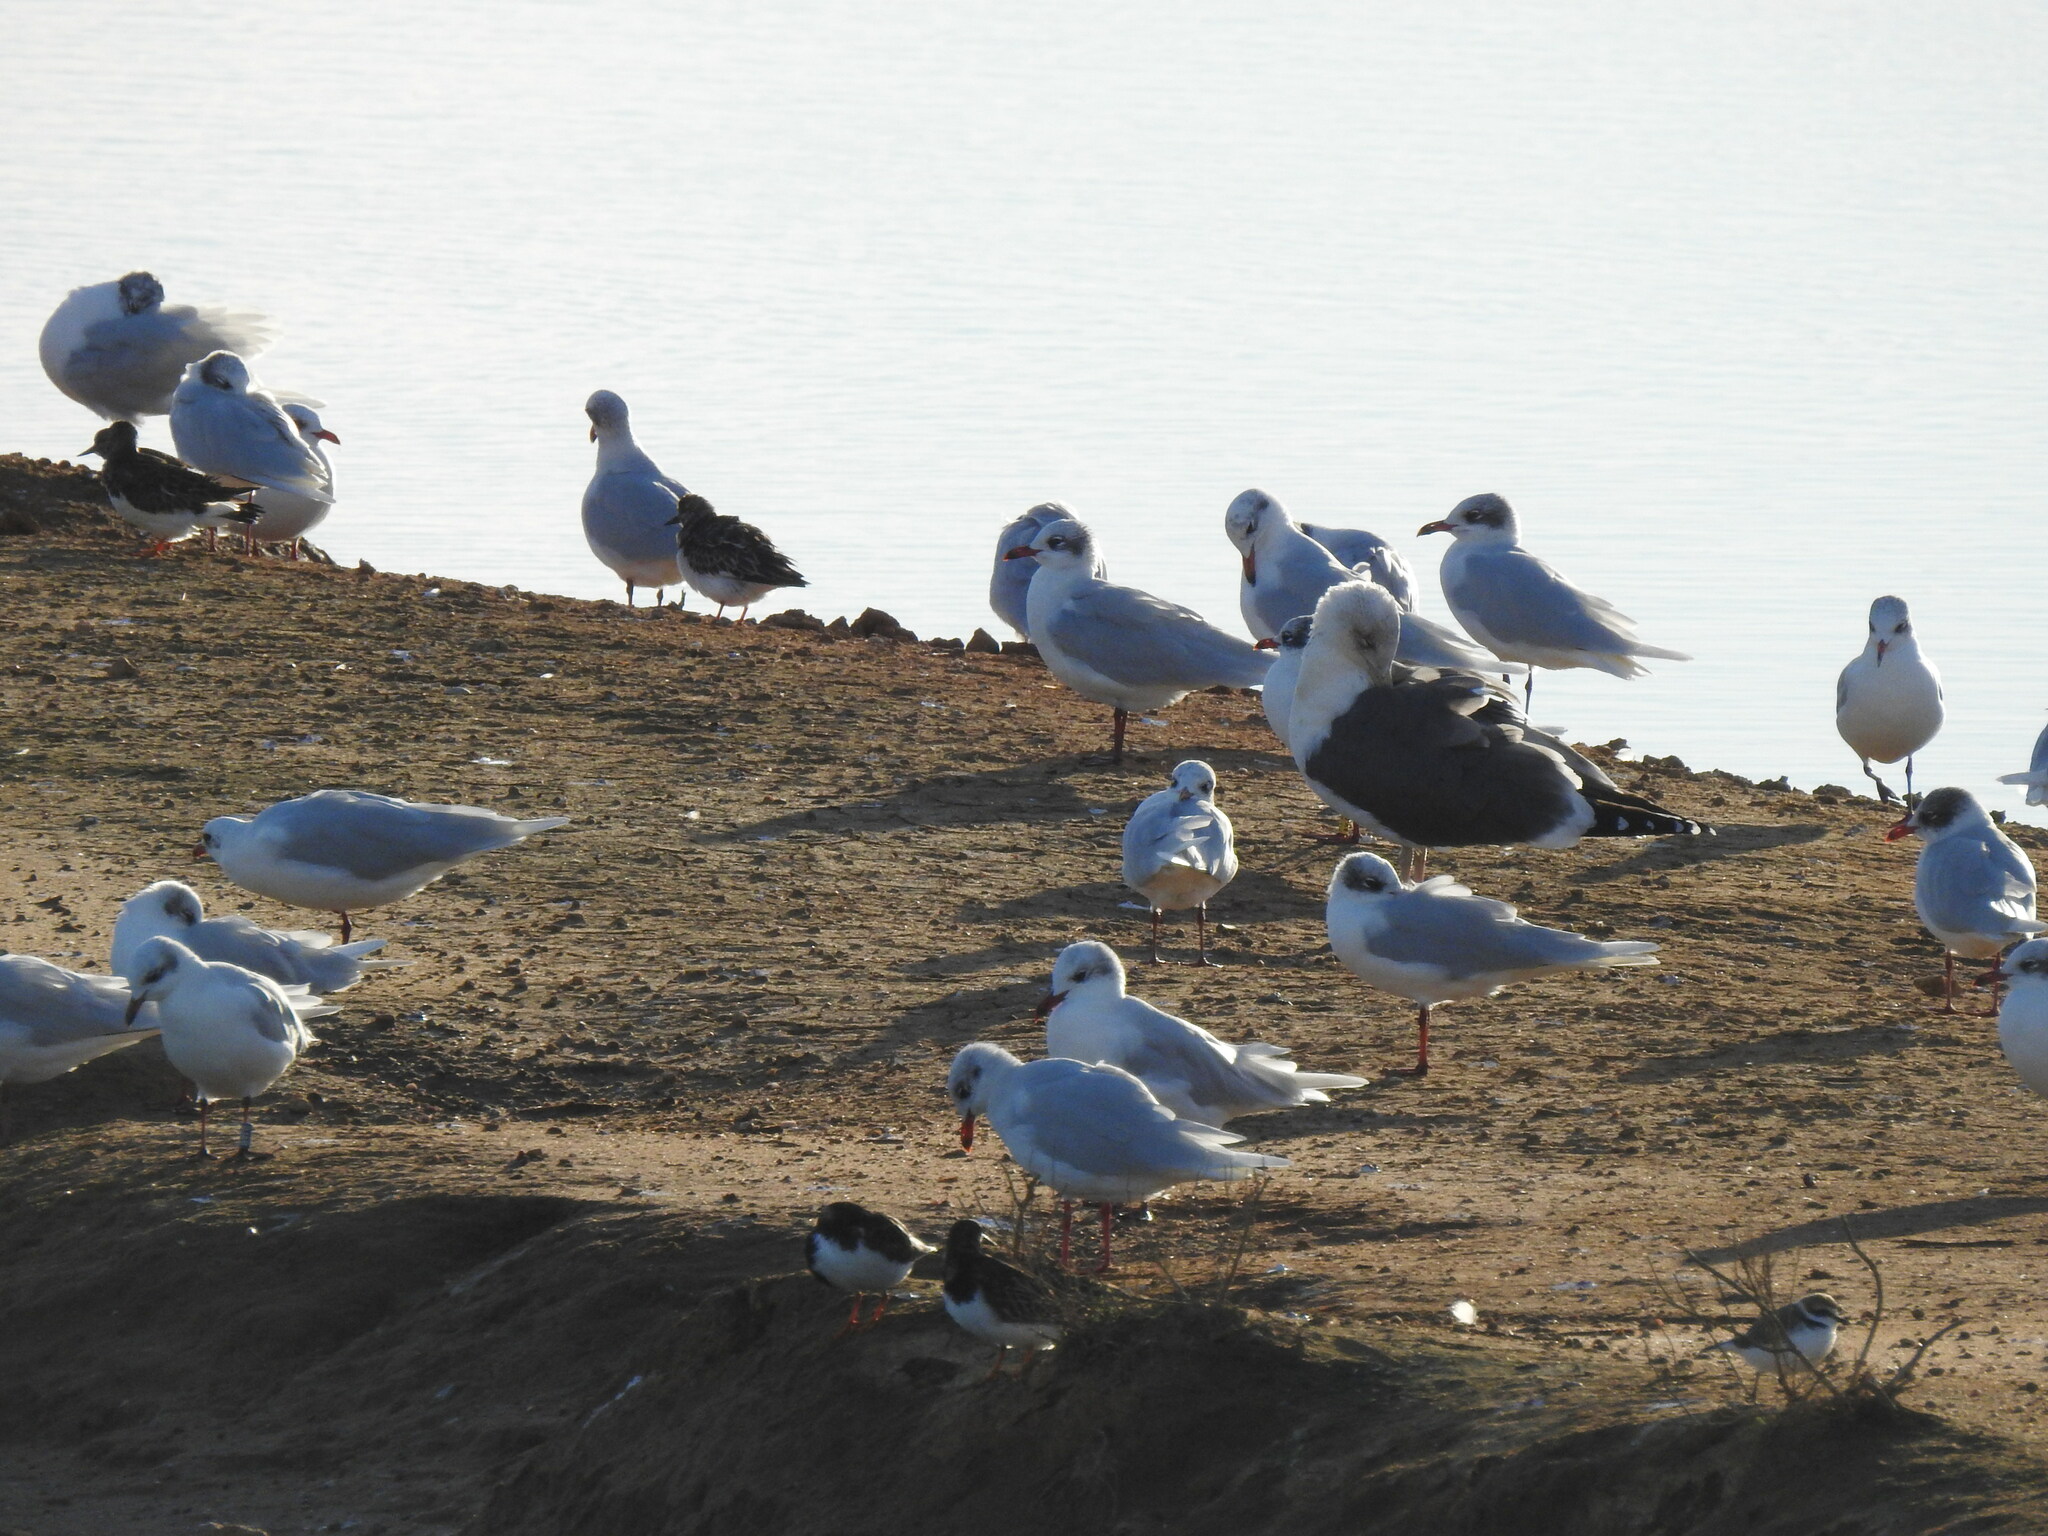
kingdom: Animalia
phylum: Chordata
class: Aves
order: Charadriiformes
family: Scolopacidae
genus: Arenaria
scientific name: Arenaria interpres
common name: Ruddy turnstone
